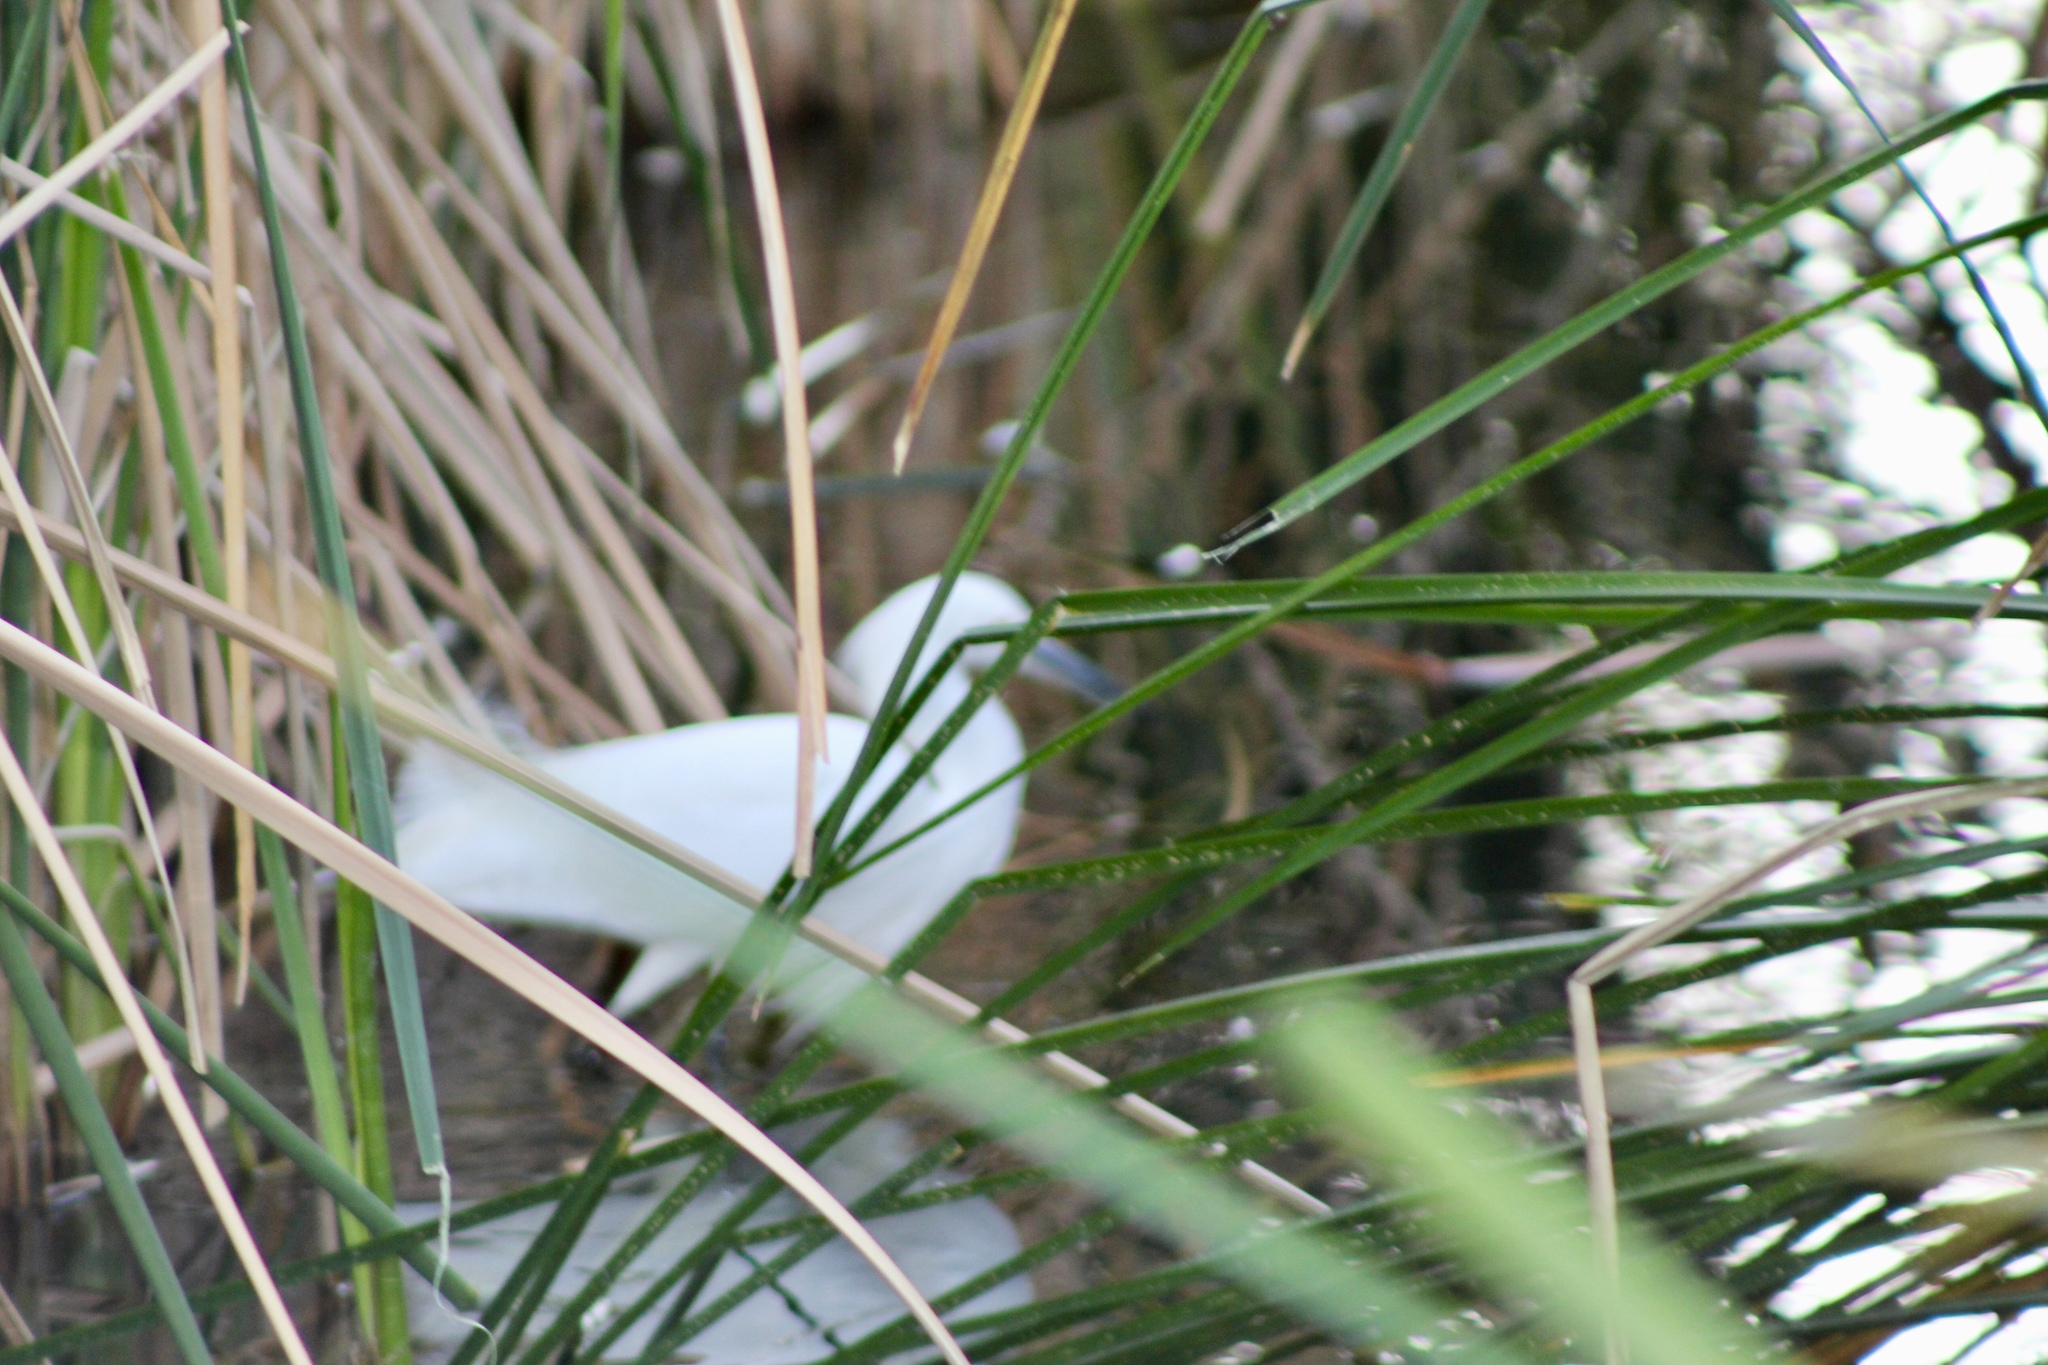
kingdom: Animalia
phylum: Chordata
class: Aves
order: Pelecaniformes
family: Ardeidae
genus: Egretta
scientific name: Egretta thula
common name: Snowy egret
